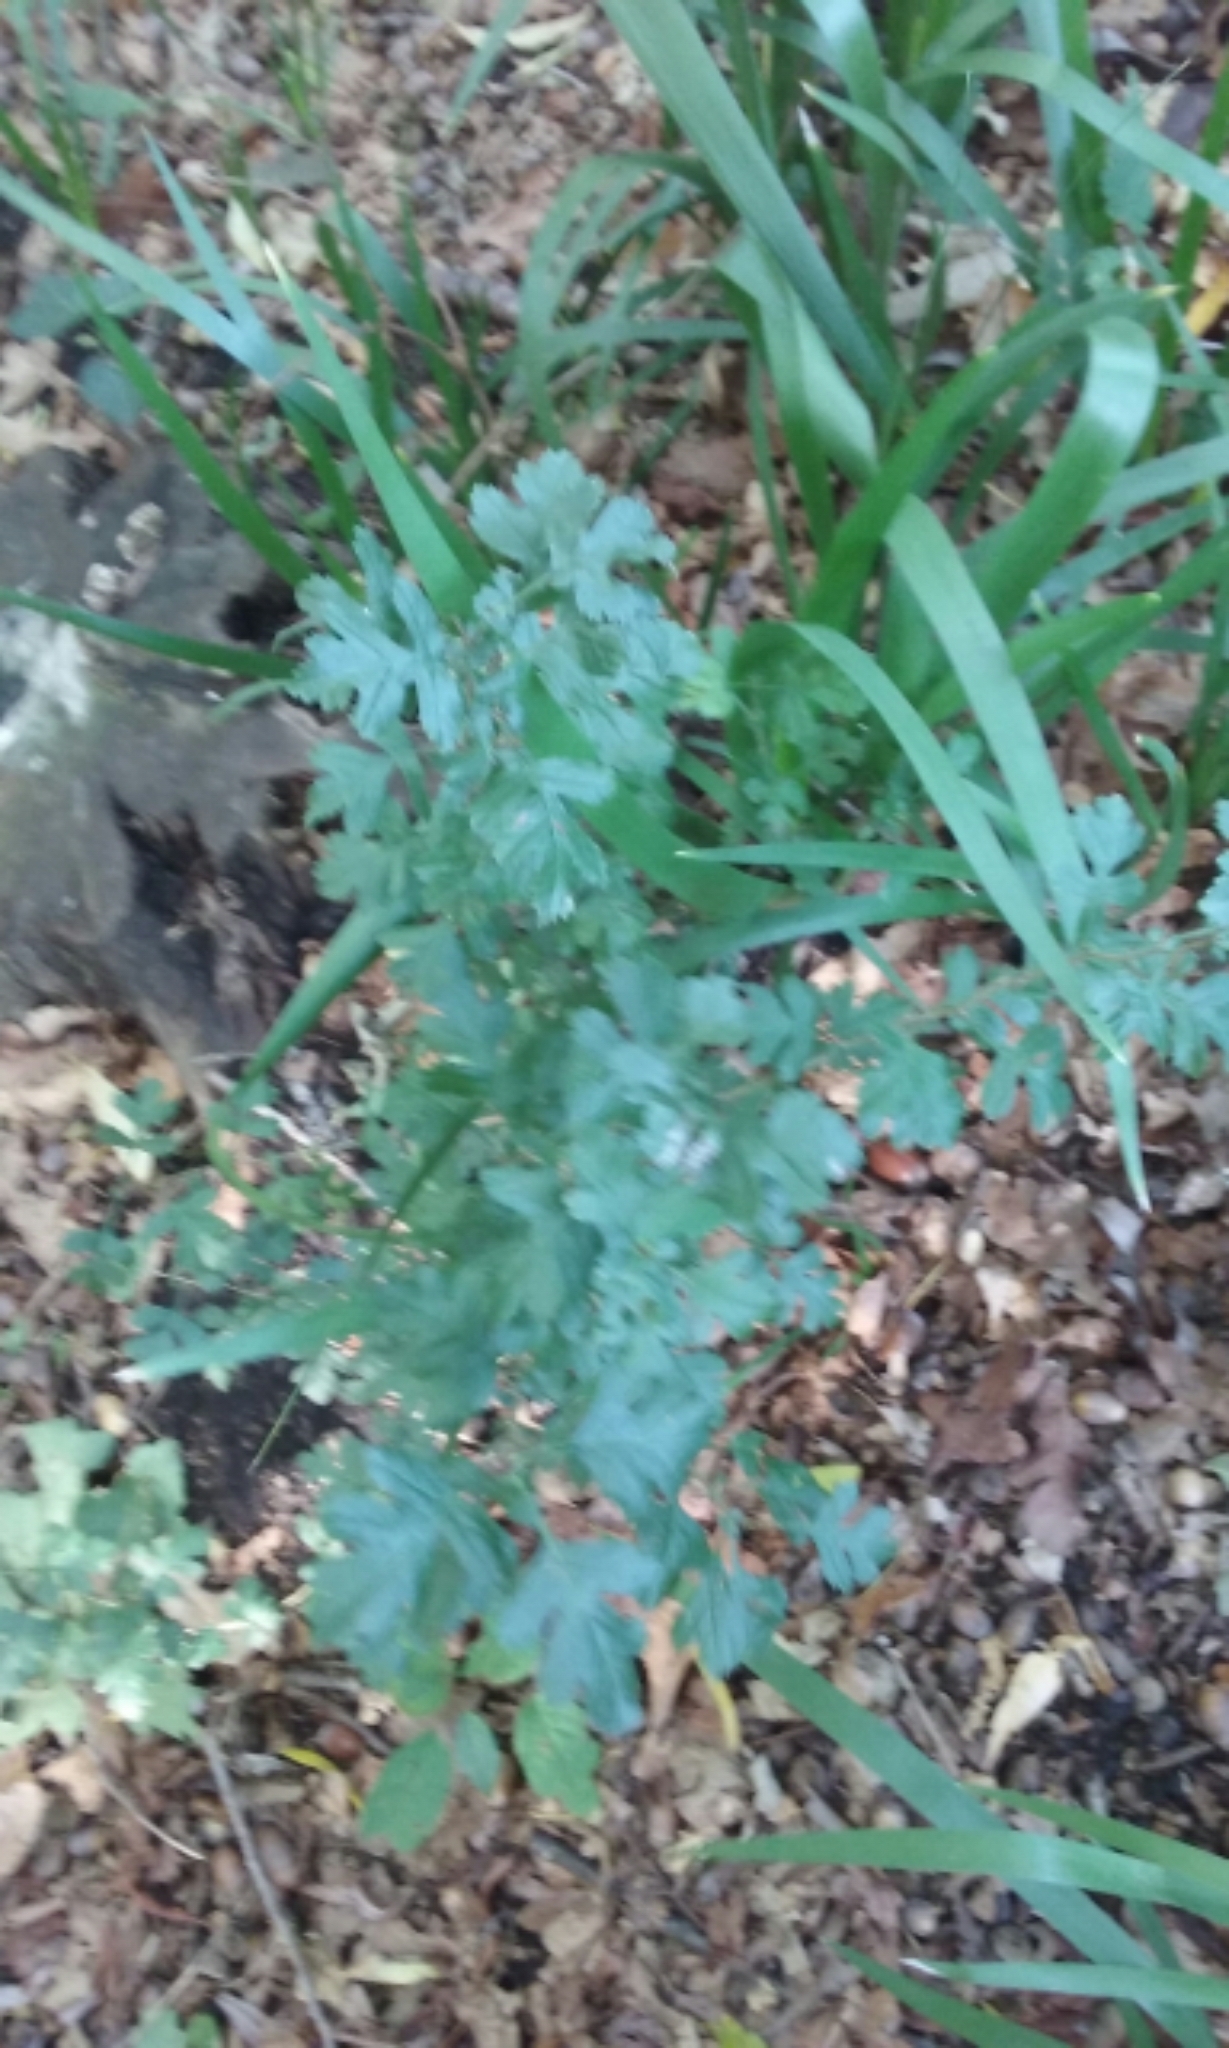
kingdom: Plantae
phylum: Tracheophyta
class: Magnoliopsida
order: Rosales
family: Rosaceae
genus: Crataegus
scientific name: Crataegus monogyna
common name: Hawthorn
